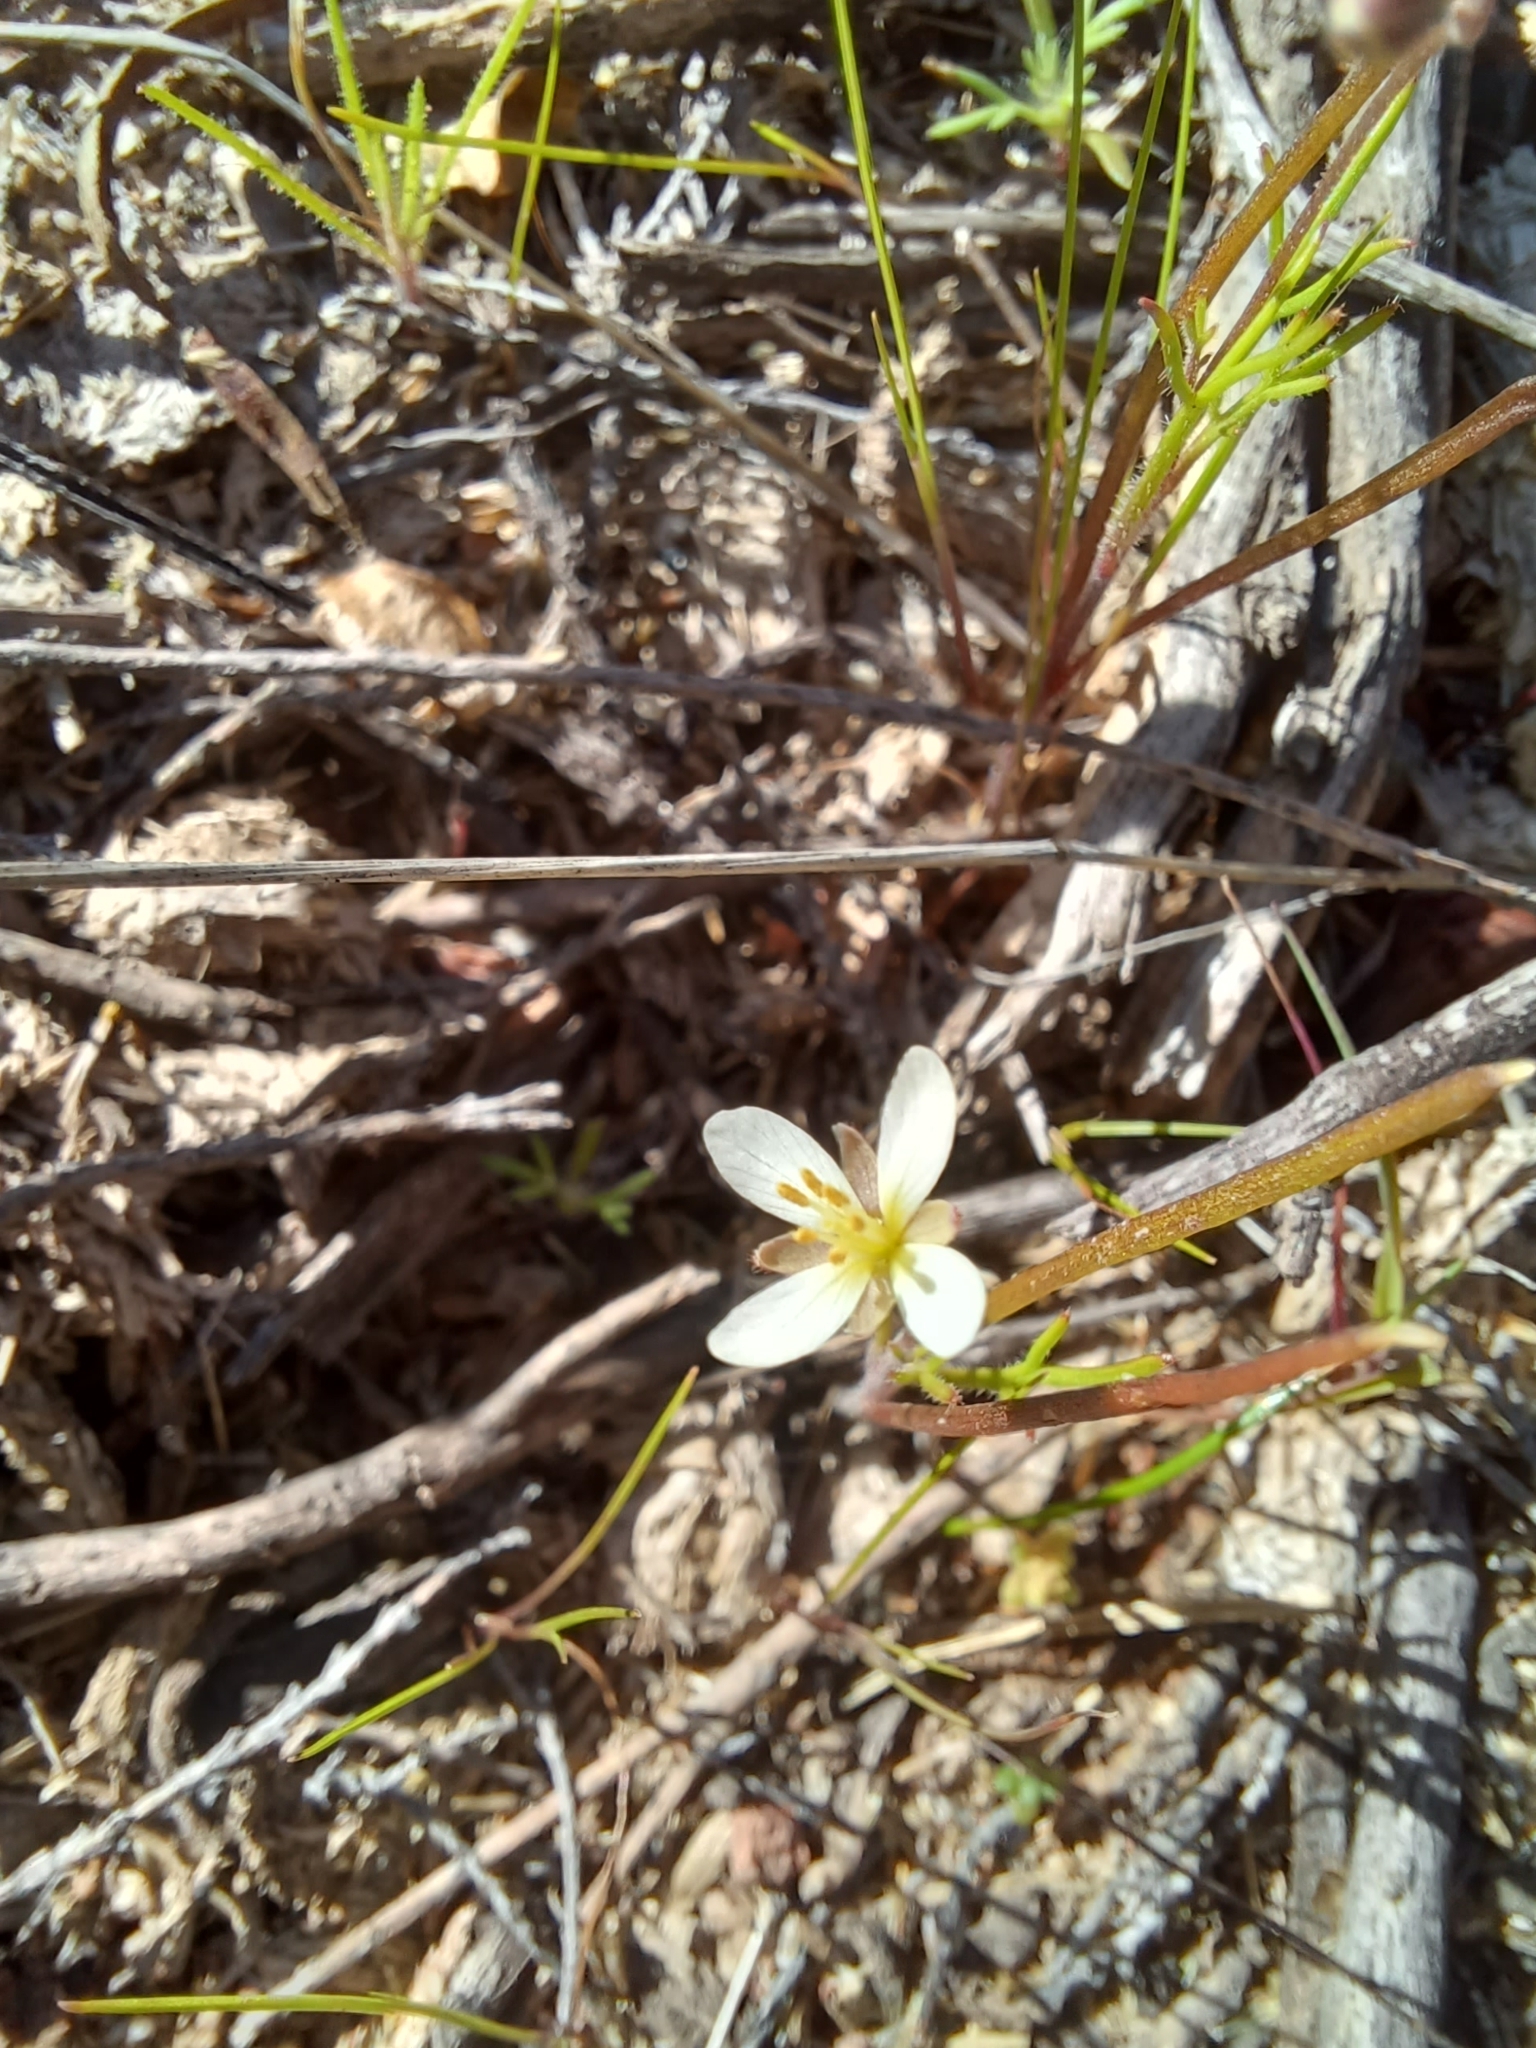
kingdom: Plantae
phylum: Tracheophyta
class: Magnoliopsida
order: Brassicales
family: Brassicaceae
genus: Heliophila
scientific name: Heliophila crithmifolia
